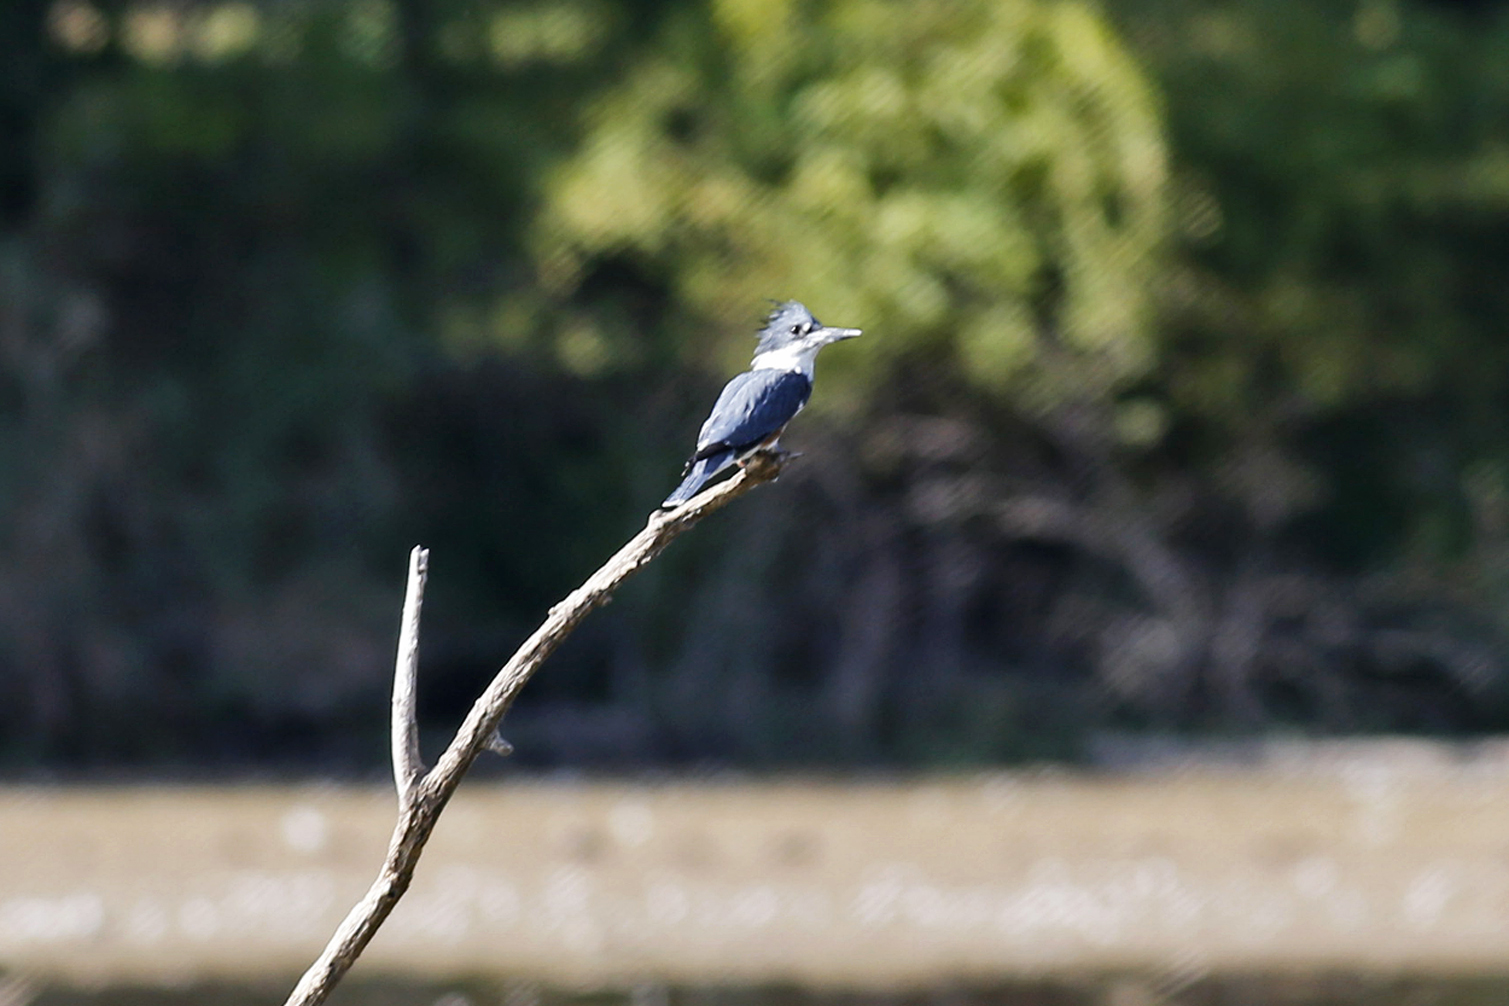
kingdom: Animalia
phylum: Chordata
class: Aves
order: Coraciiformes
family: Alcedinidae
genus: Megaceryle
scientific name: Megaceryle alcyon
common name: Belted kingfisher
